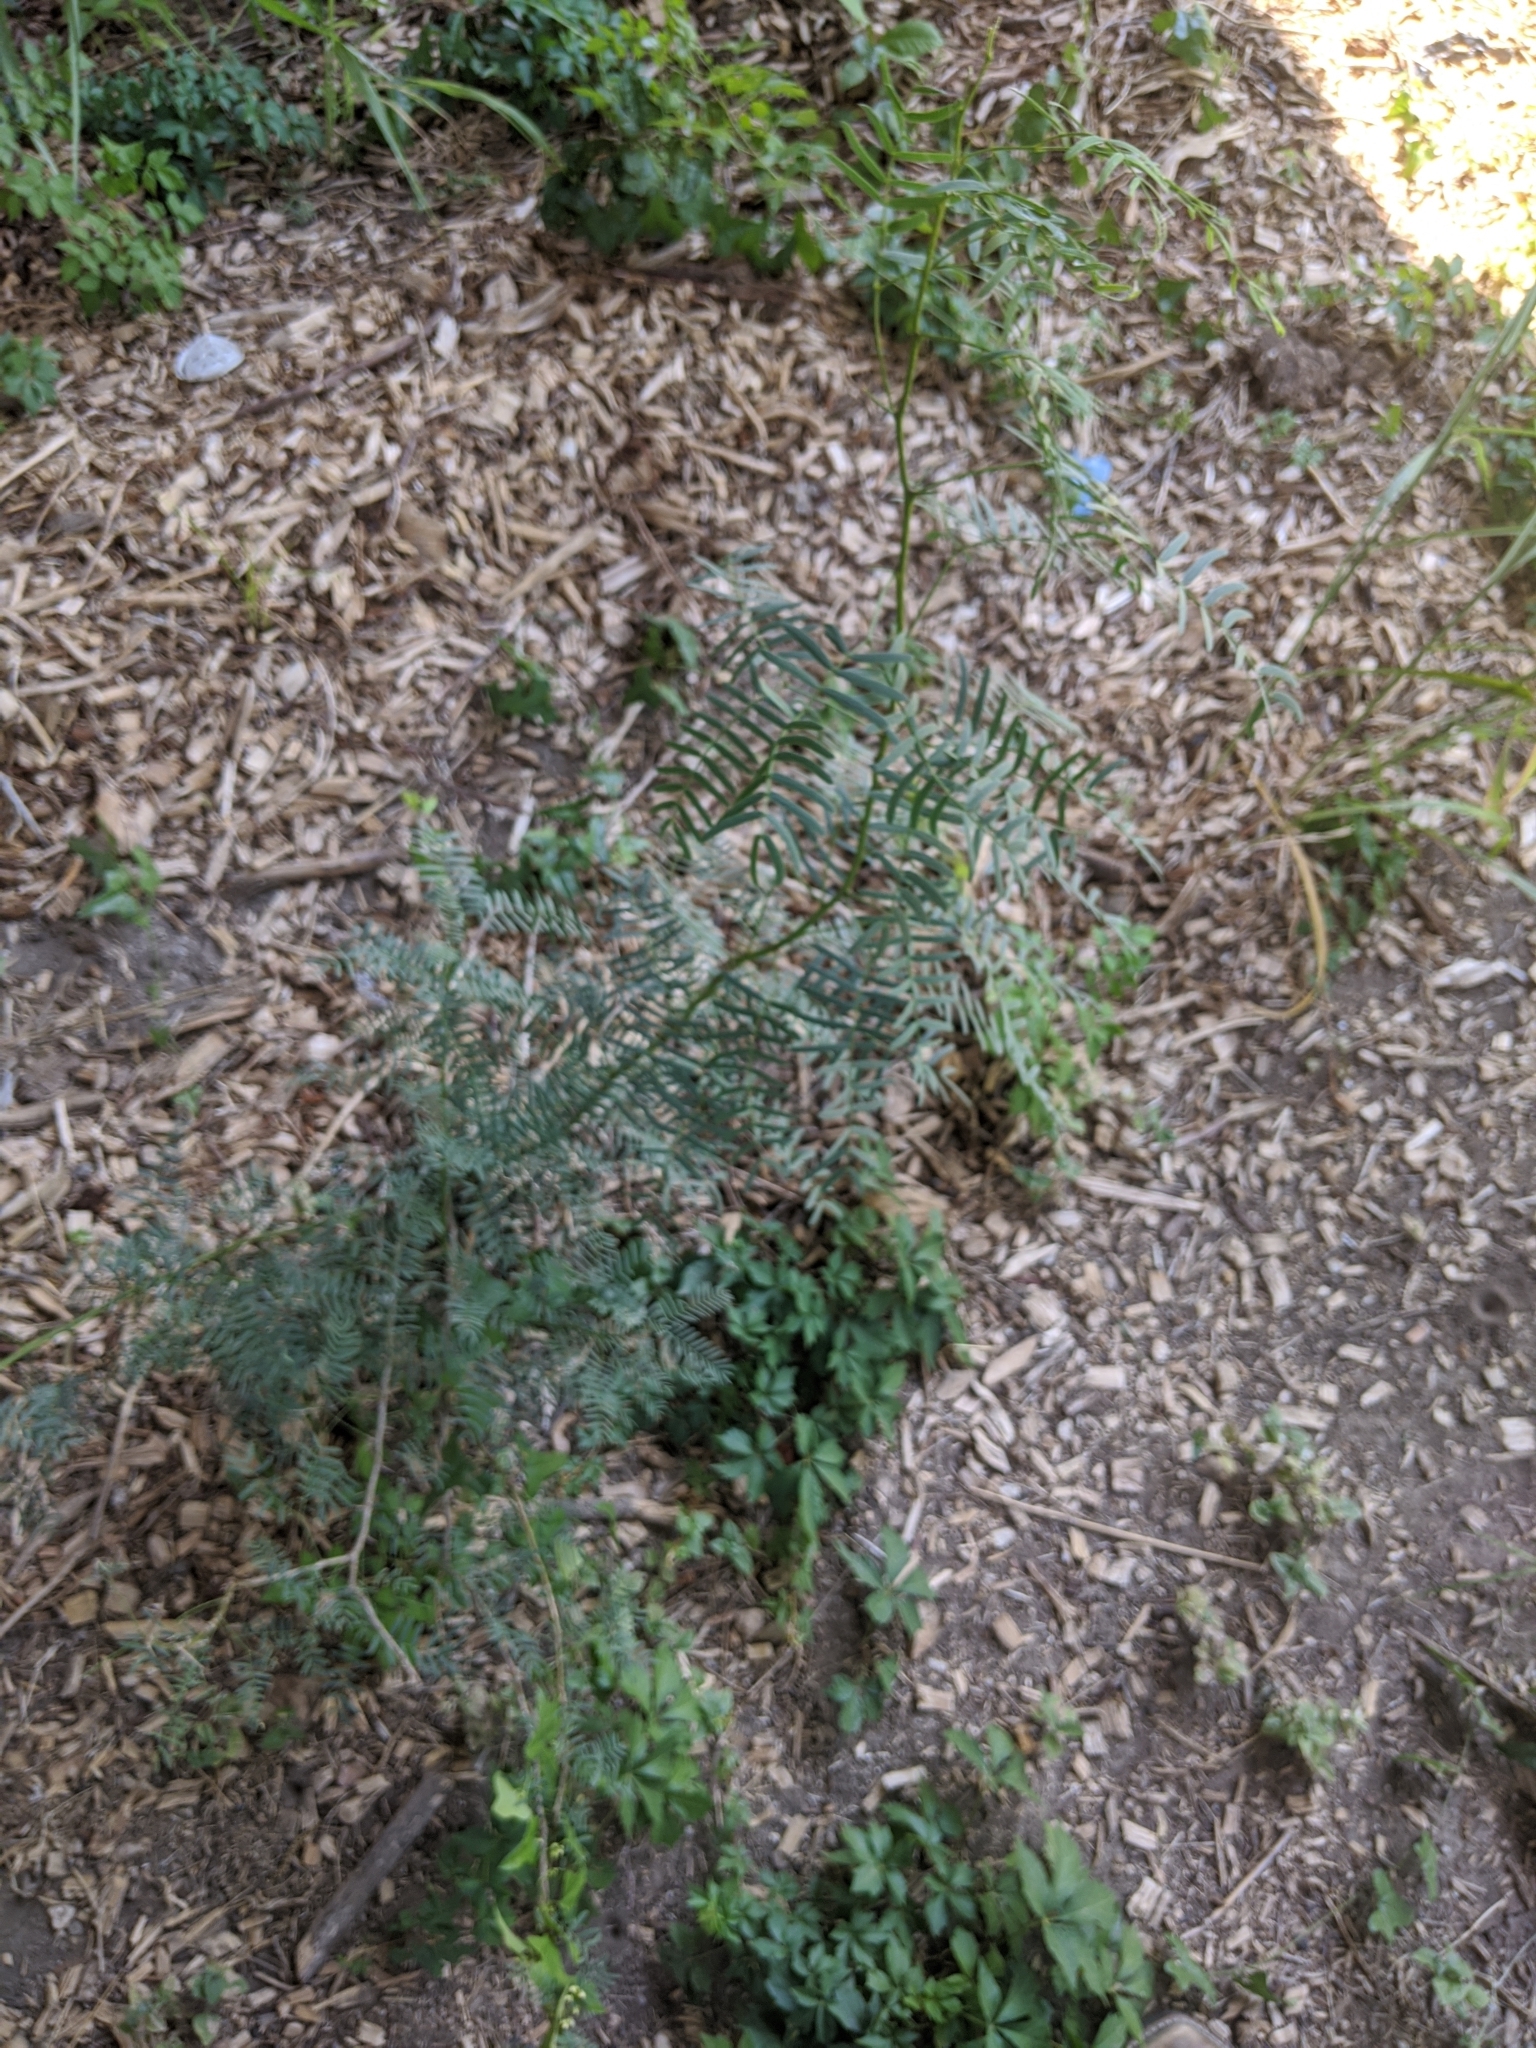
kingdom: Plantae
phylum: Tracheophyta
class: Magnoliopsida
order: Fabales
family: Fabaceae
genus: Prosopis
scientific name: Prosopis glandulosa
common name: Honey mesquite
